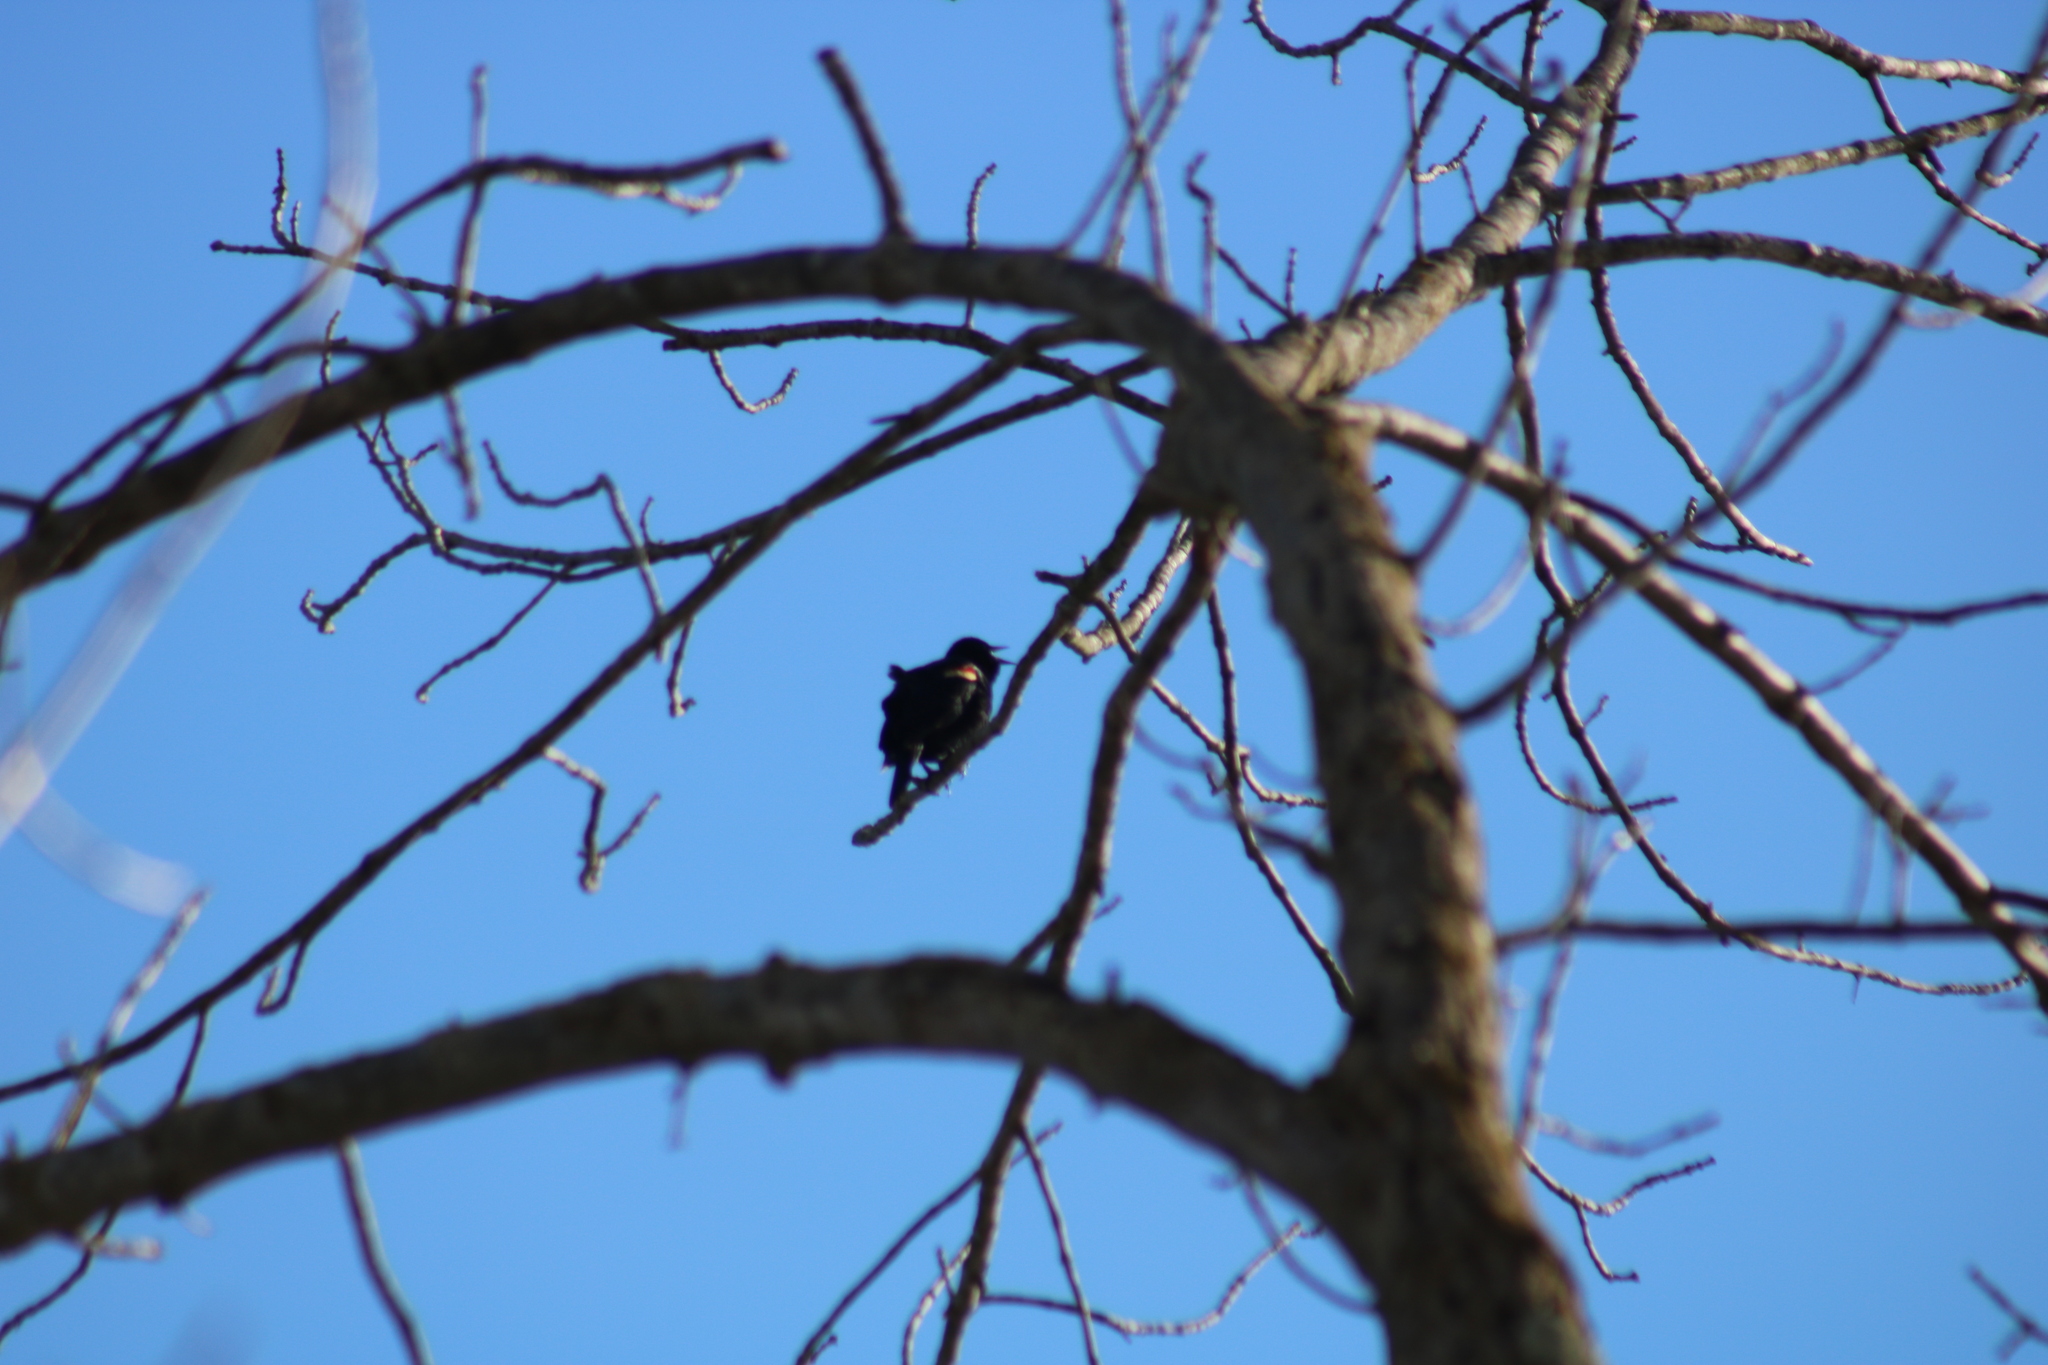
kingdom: Animalia
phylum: Chordata
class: Aves
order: Passeriformes
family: Icteridae
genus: Agelaius
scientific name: Agelaius phoeniceus
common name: Red-winged blackbird
